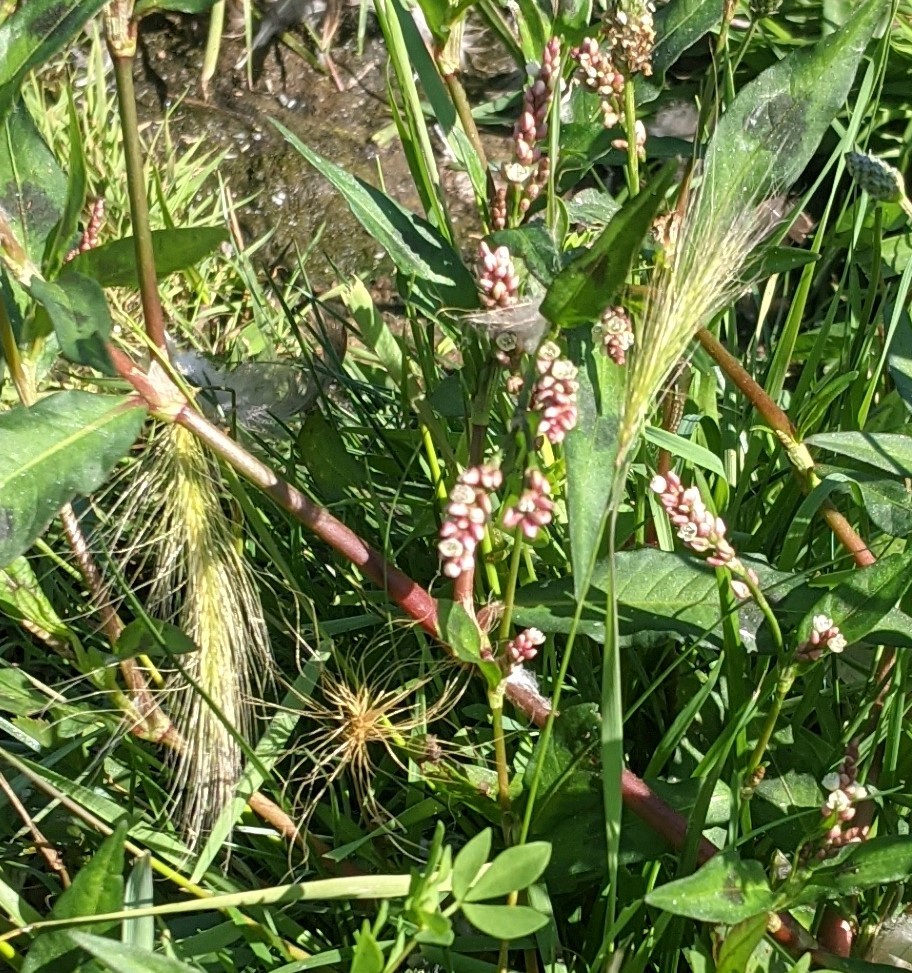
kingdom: Plantae
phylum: Tracheophyta
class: Liliopsida
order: Poales
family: Poaceae
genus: Hordeum
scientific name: Hordeum jubatum
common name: Foxtail barley
